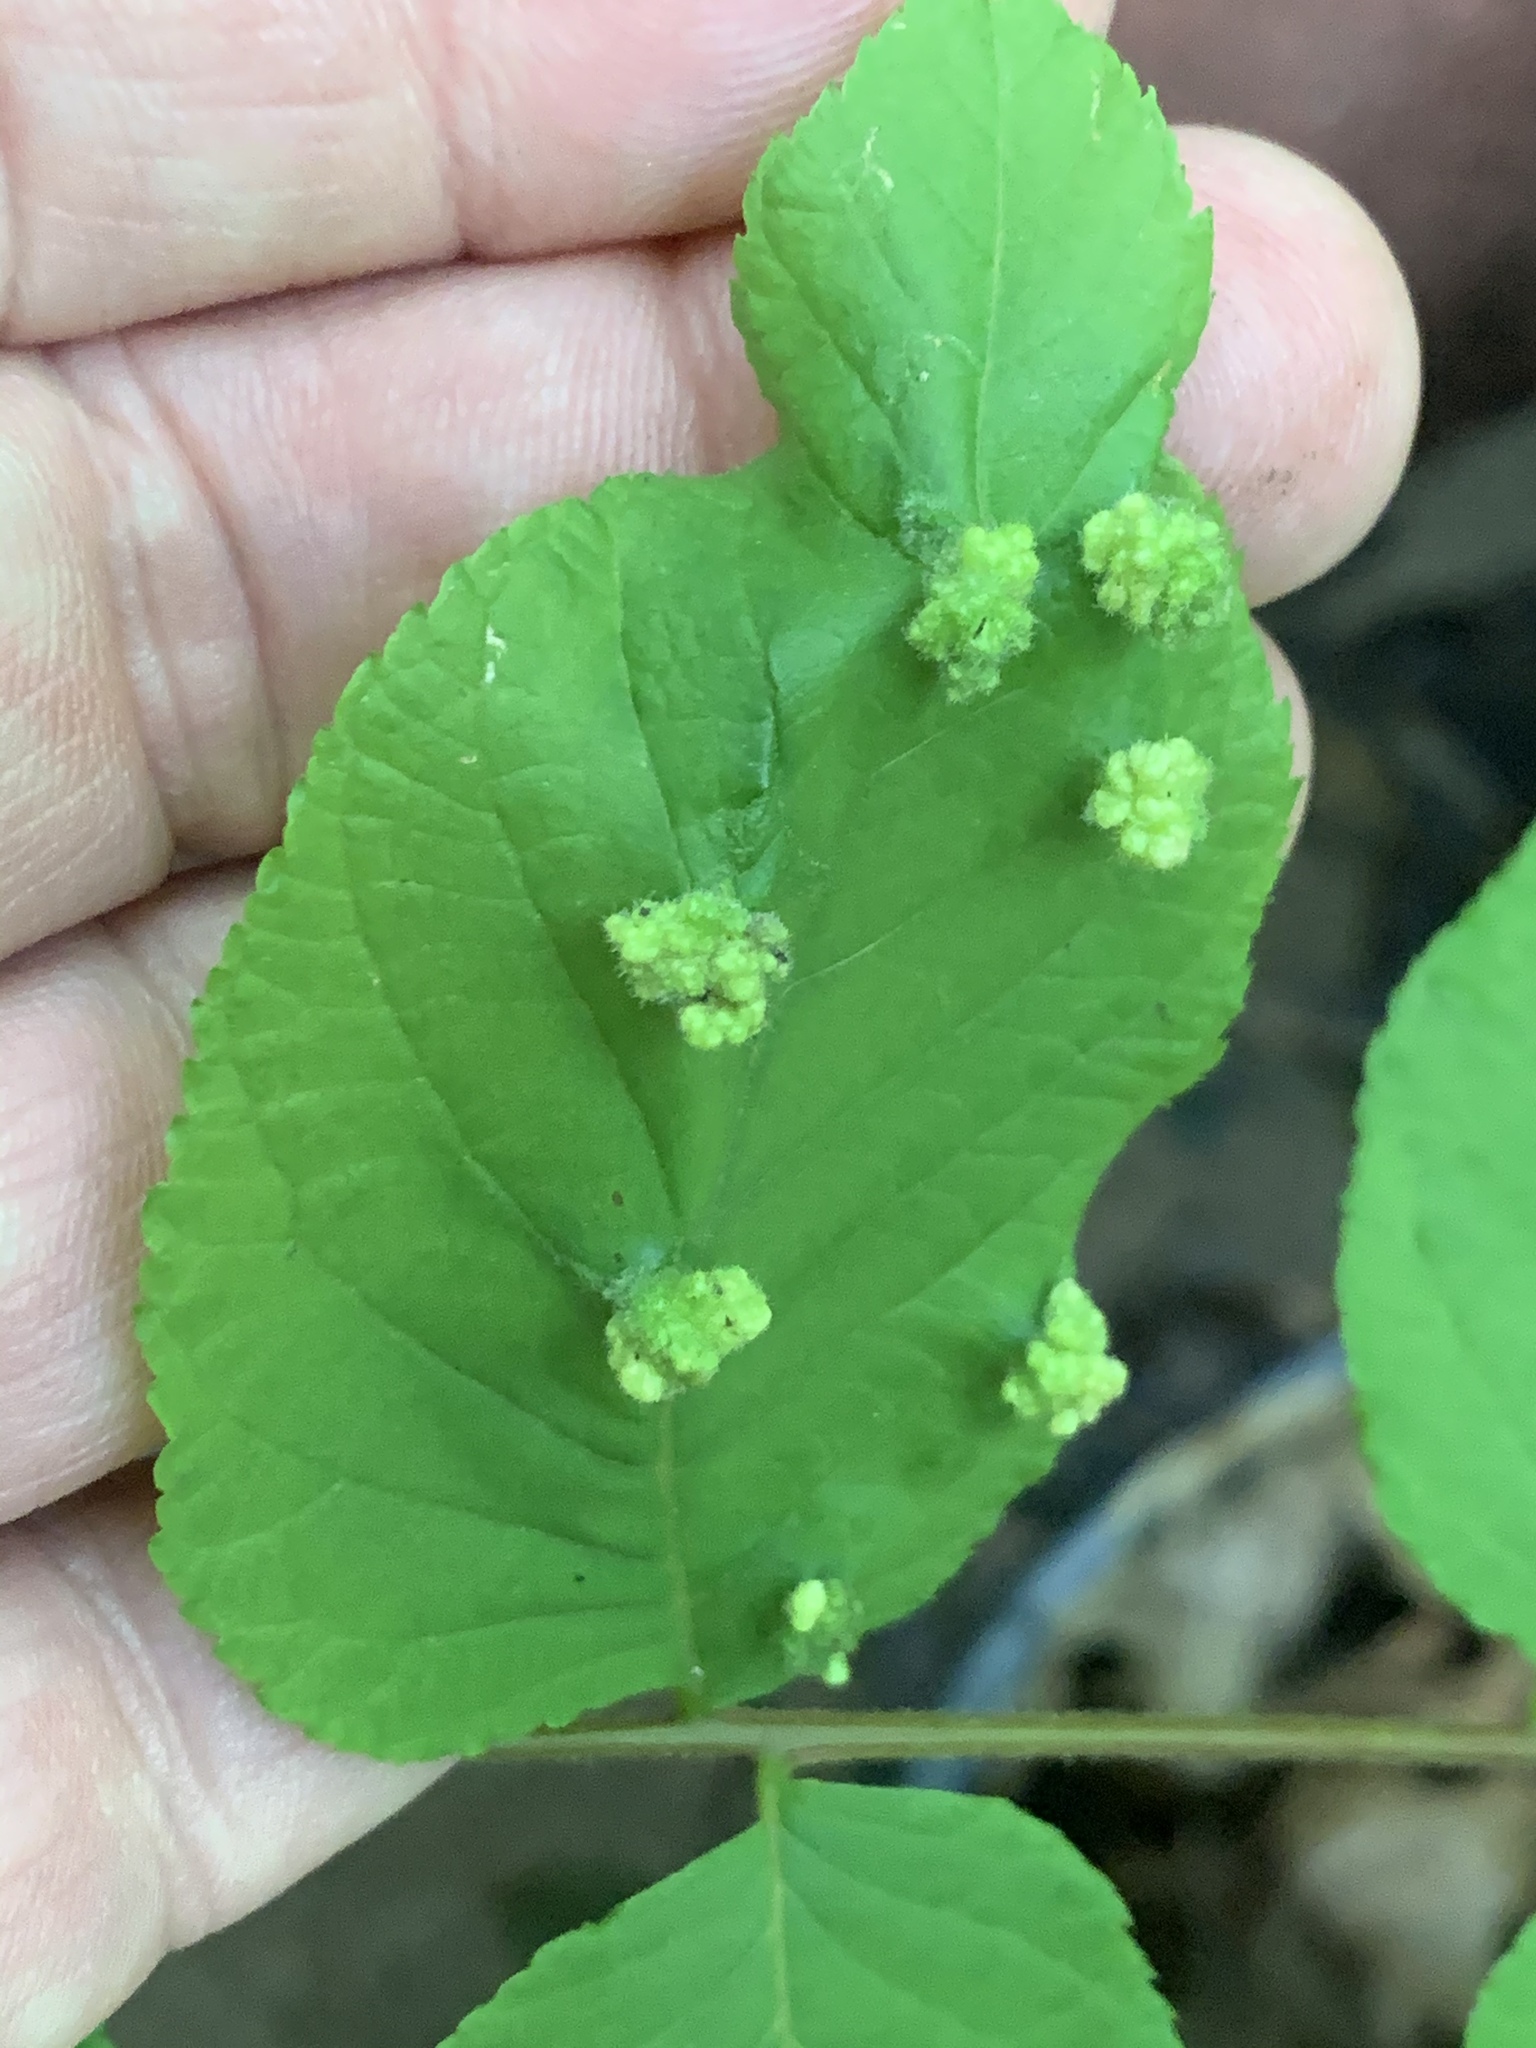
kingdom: Animalia
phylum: Arthropoda
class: Arachnida
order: Trombidiformes
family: Eriophyidae
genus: Aceria
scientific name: Aceria
